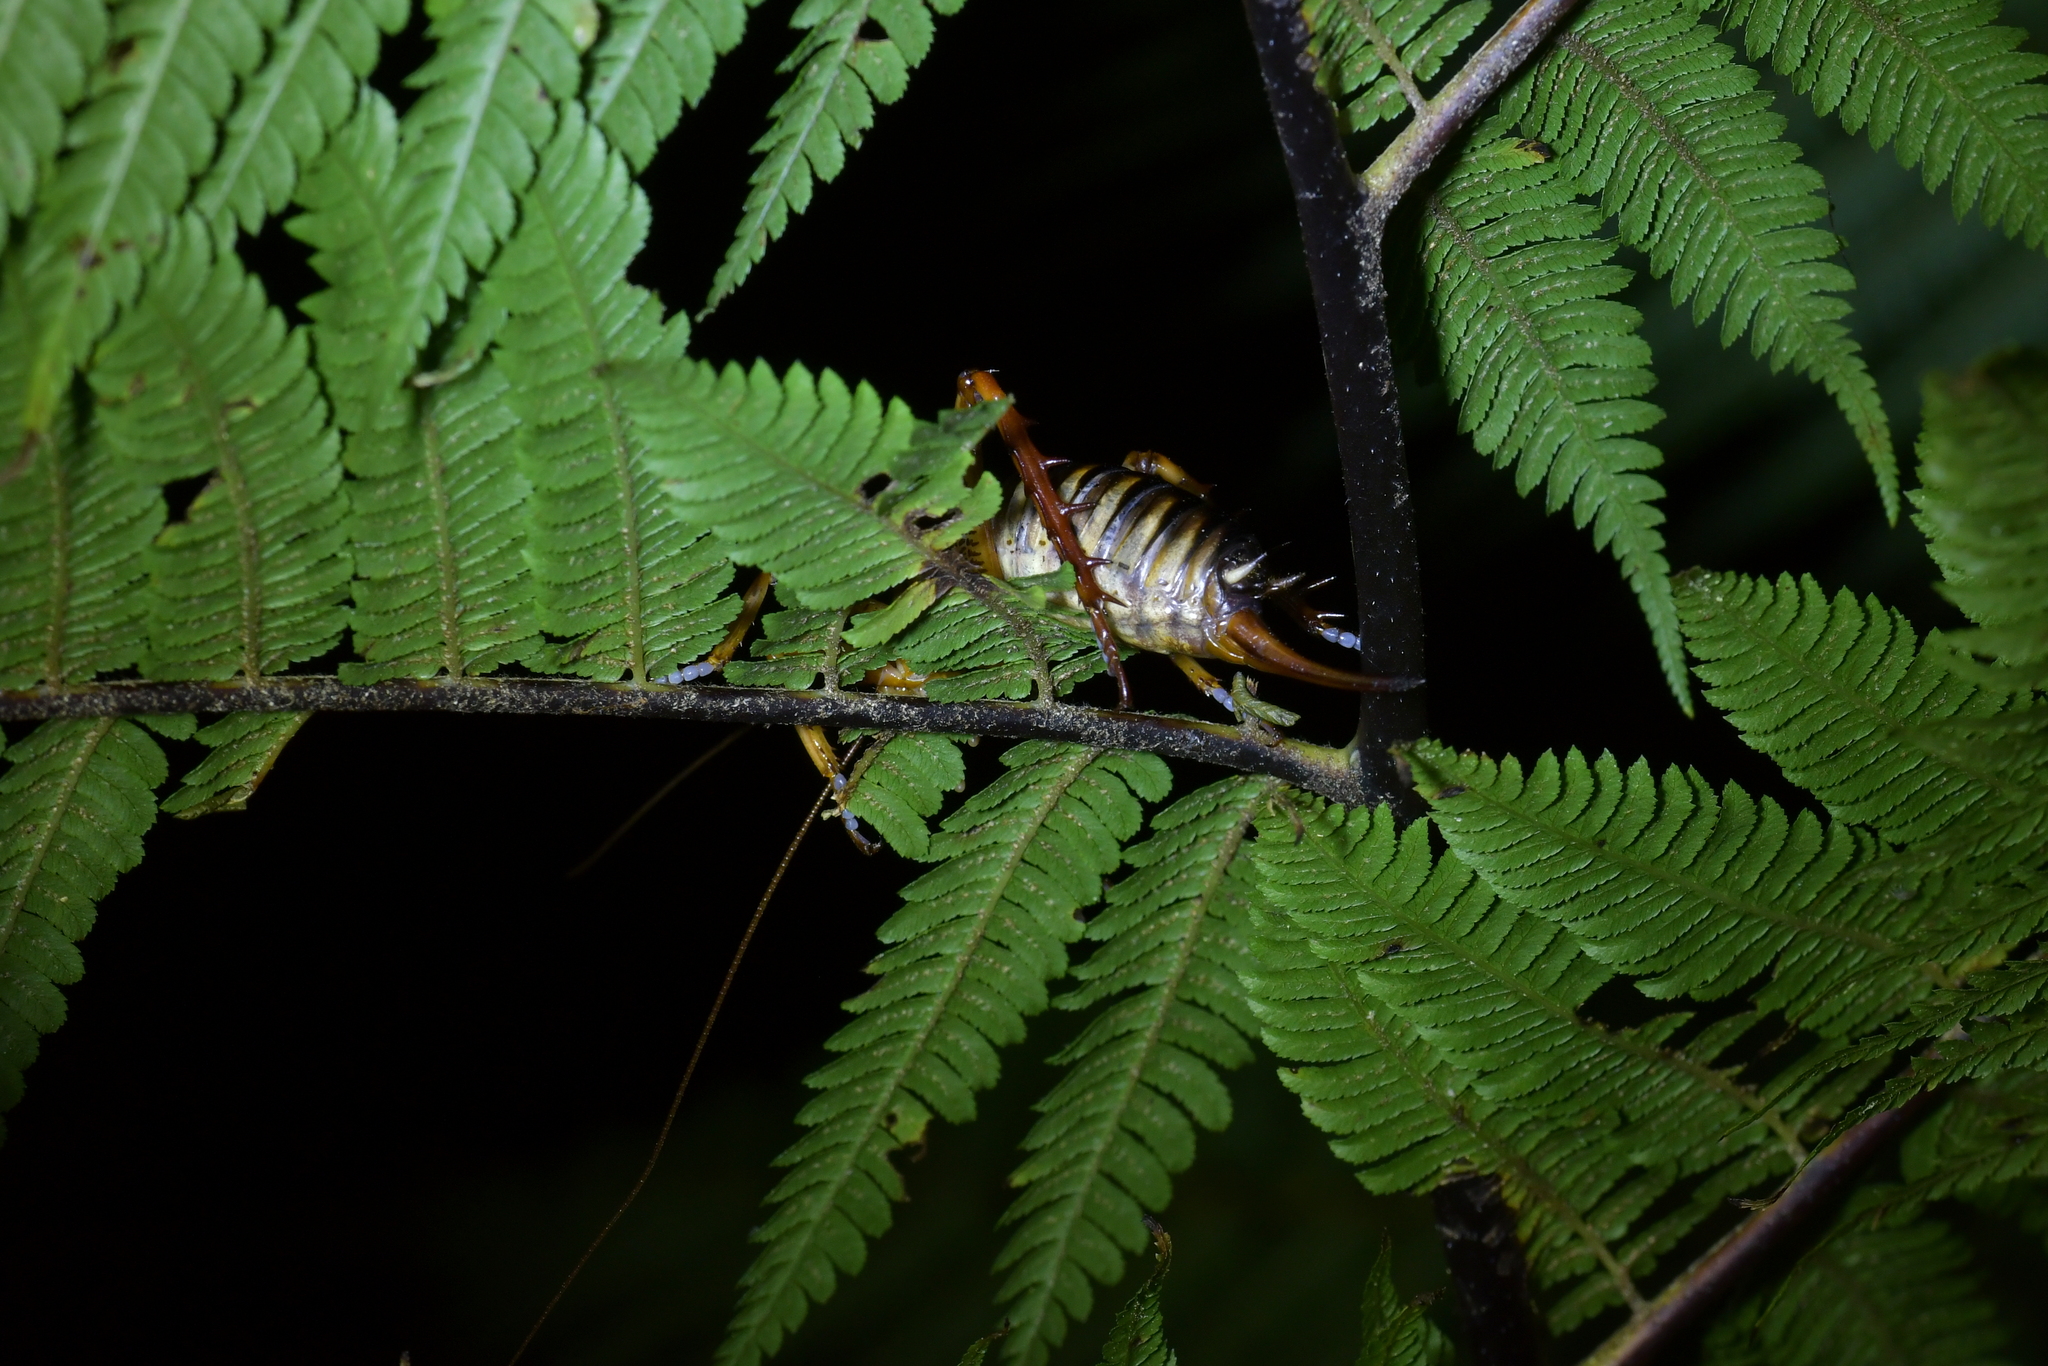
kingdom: Animalia
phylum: Arthropoda
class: Insecta
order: Orthoptera
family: Anostostomatidae
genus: Hemideina
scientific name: Hemideina crassidens
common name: Wellington tree weta
